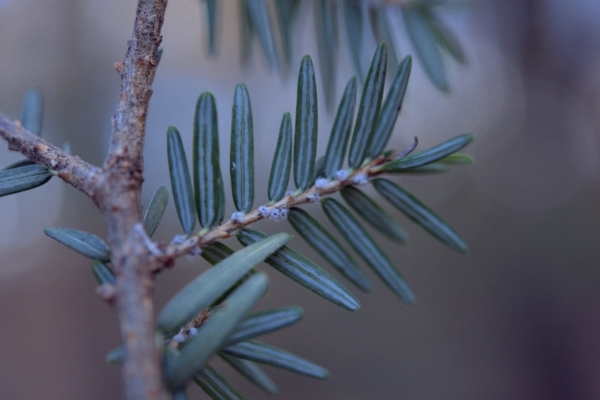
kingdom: Animalia
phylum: Arthropoda
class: Insecta
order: Hemiptera
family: Adelgidae
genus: Adelges
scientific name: Adelges tsugae
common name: Hemlock woolly adelgid
